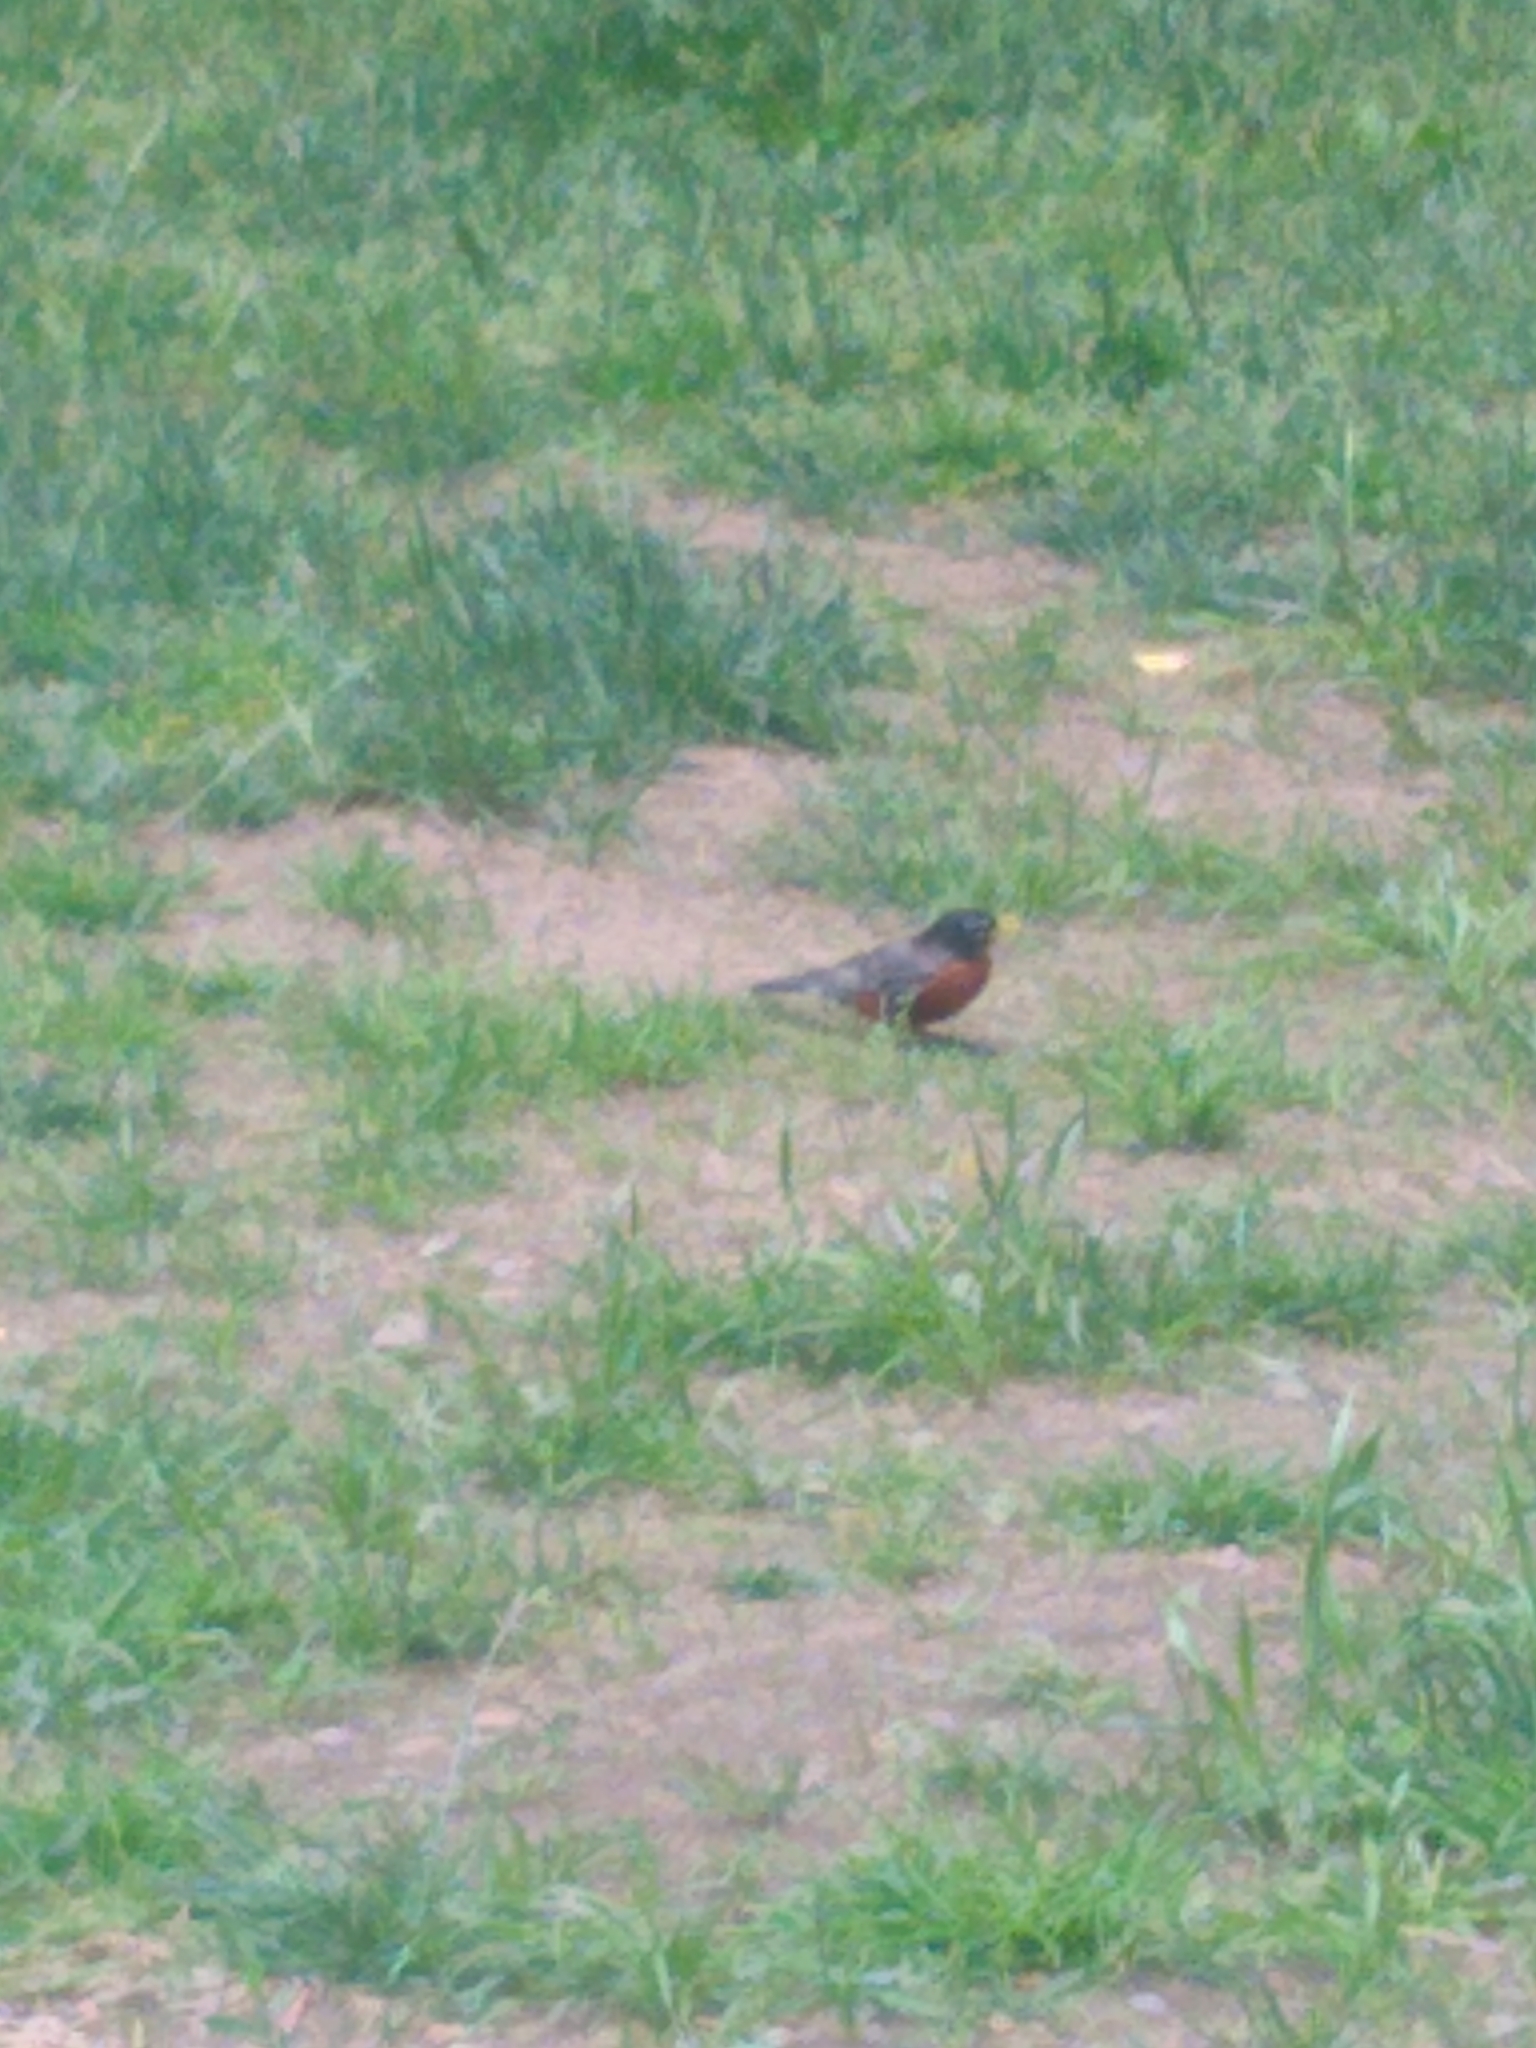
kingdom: Animalia
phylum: Chordata
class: Aves
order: Passeriformes
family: Turdidae
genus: Turdus
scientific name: Turdus migratorius
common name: American robin
